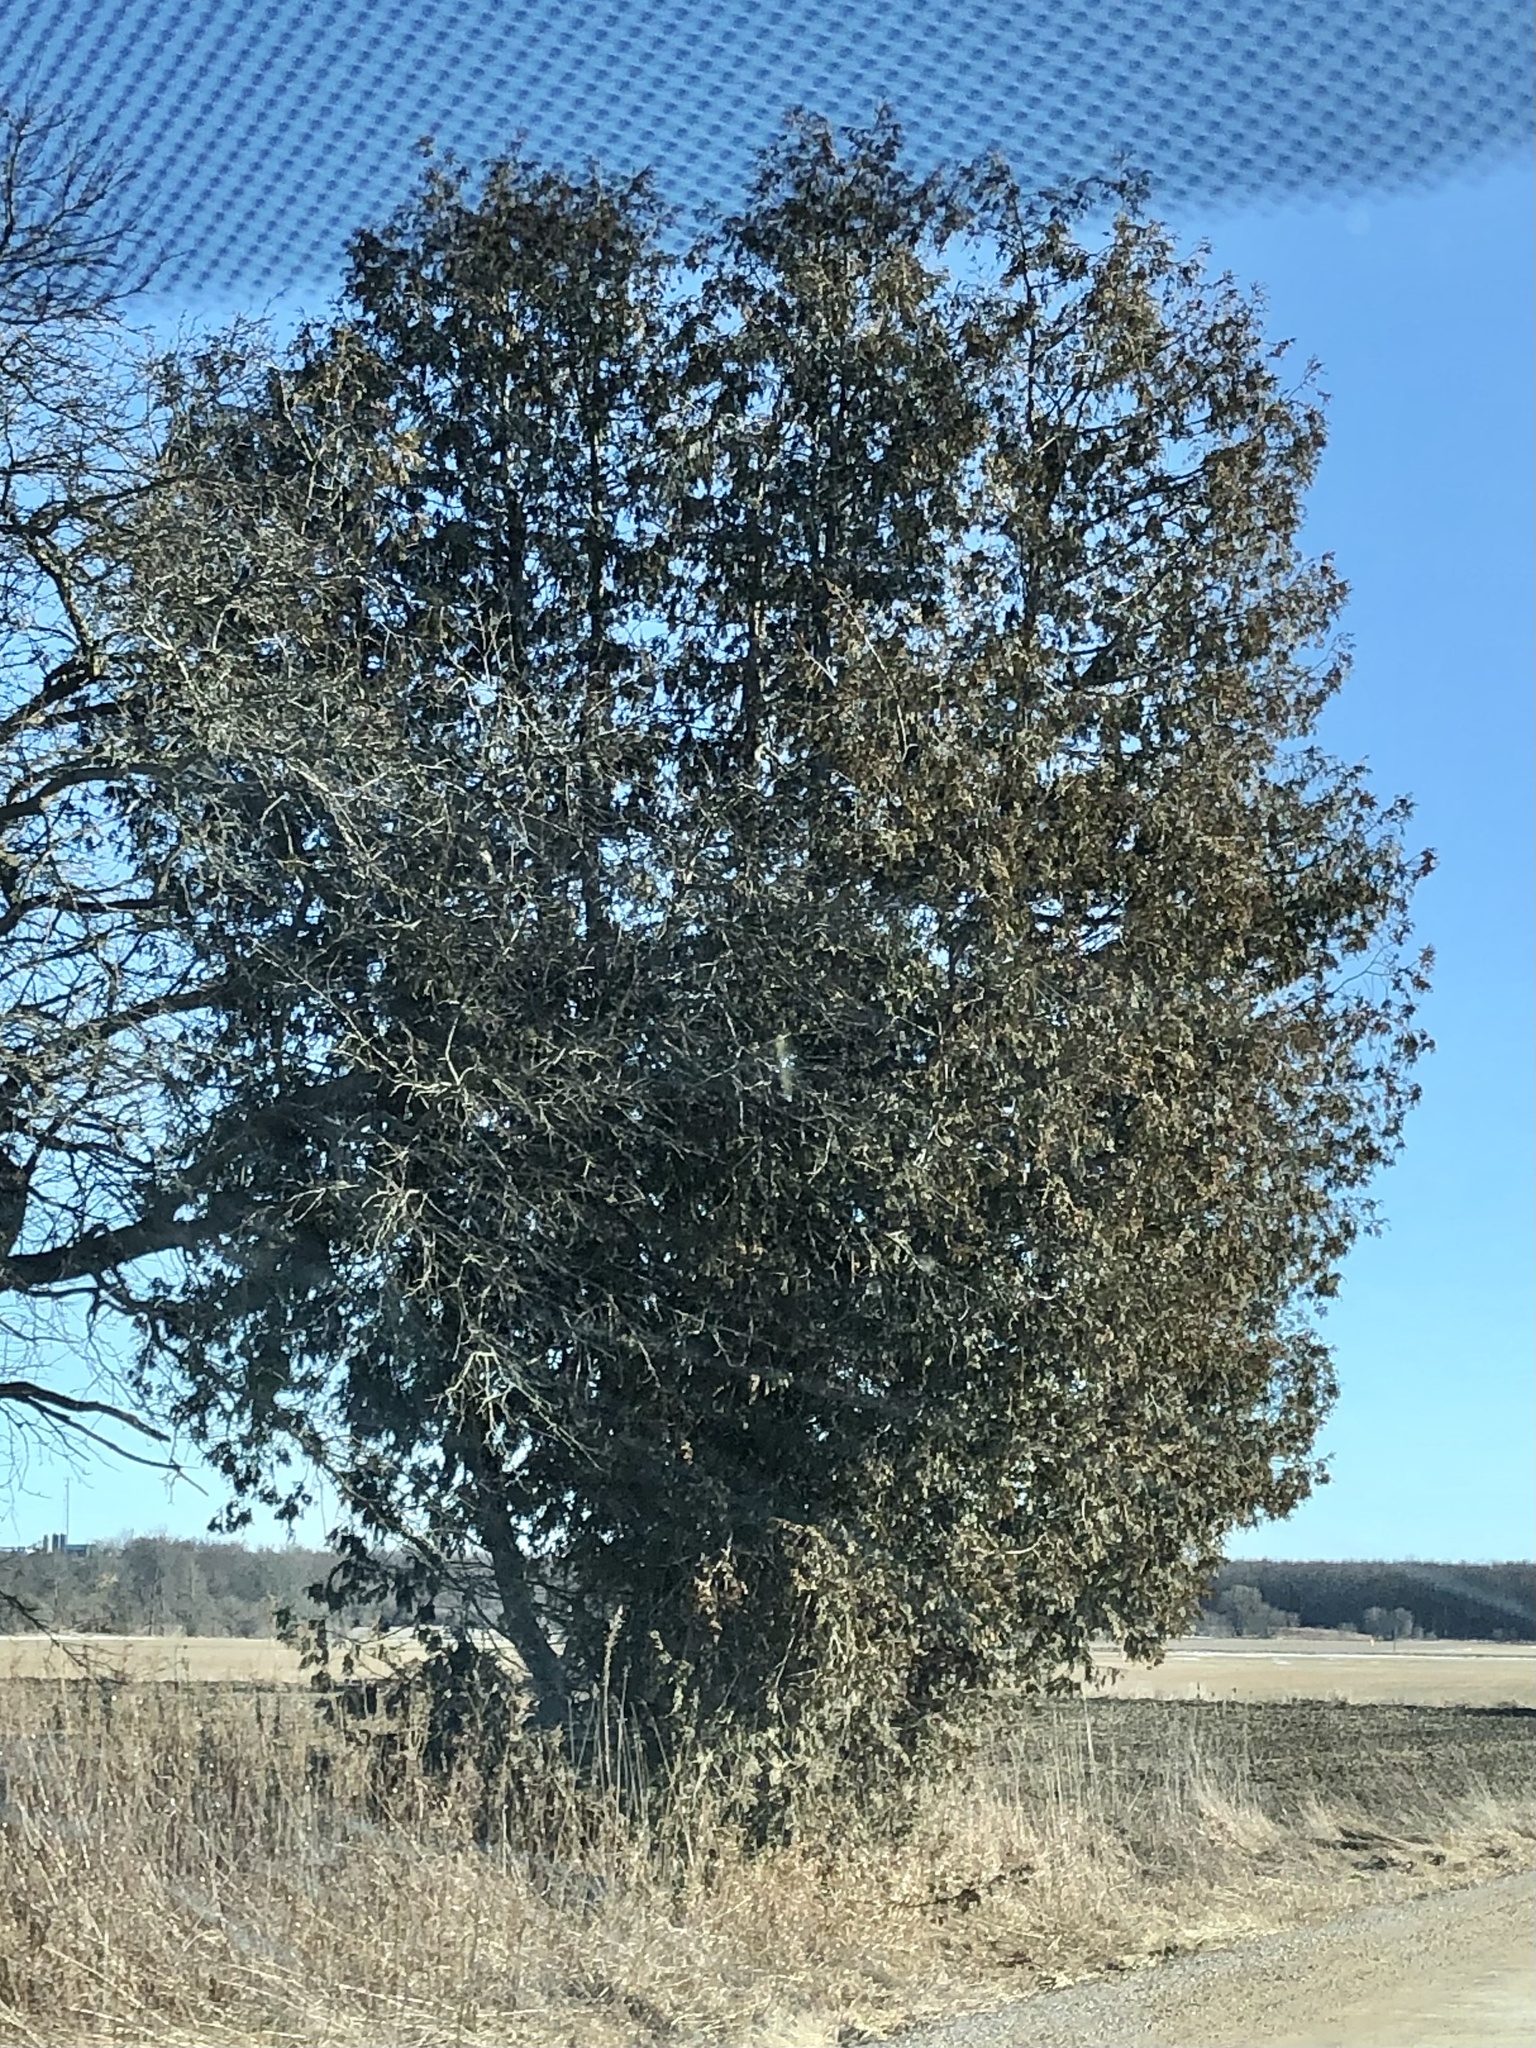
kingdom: Plantae
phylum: Tracheophyta
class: Pinopsida
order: Pinales
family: Cupressaceae
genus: Thuja
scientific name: Thuja occidentalis
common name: Northern white-cedar
